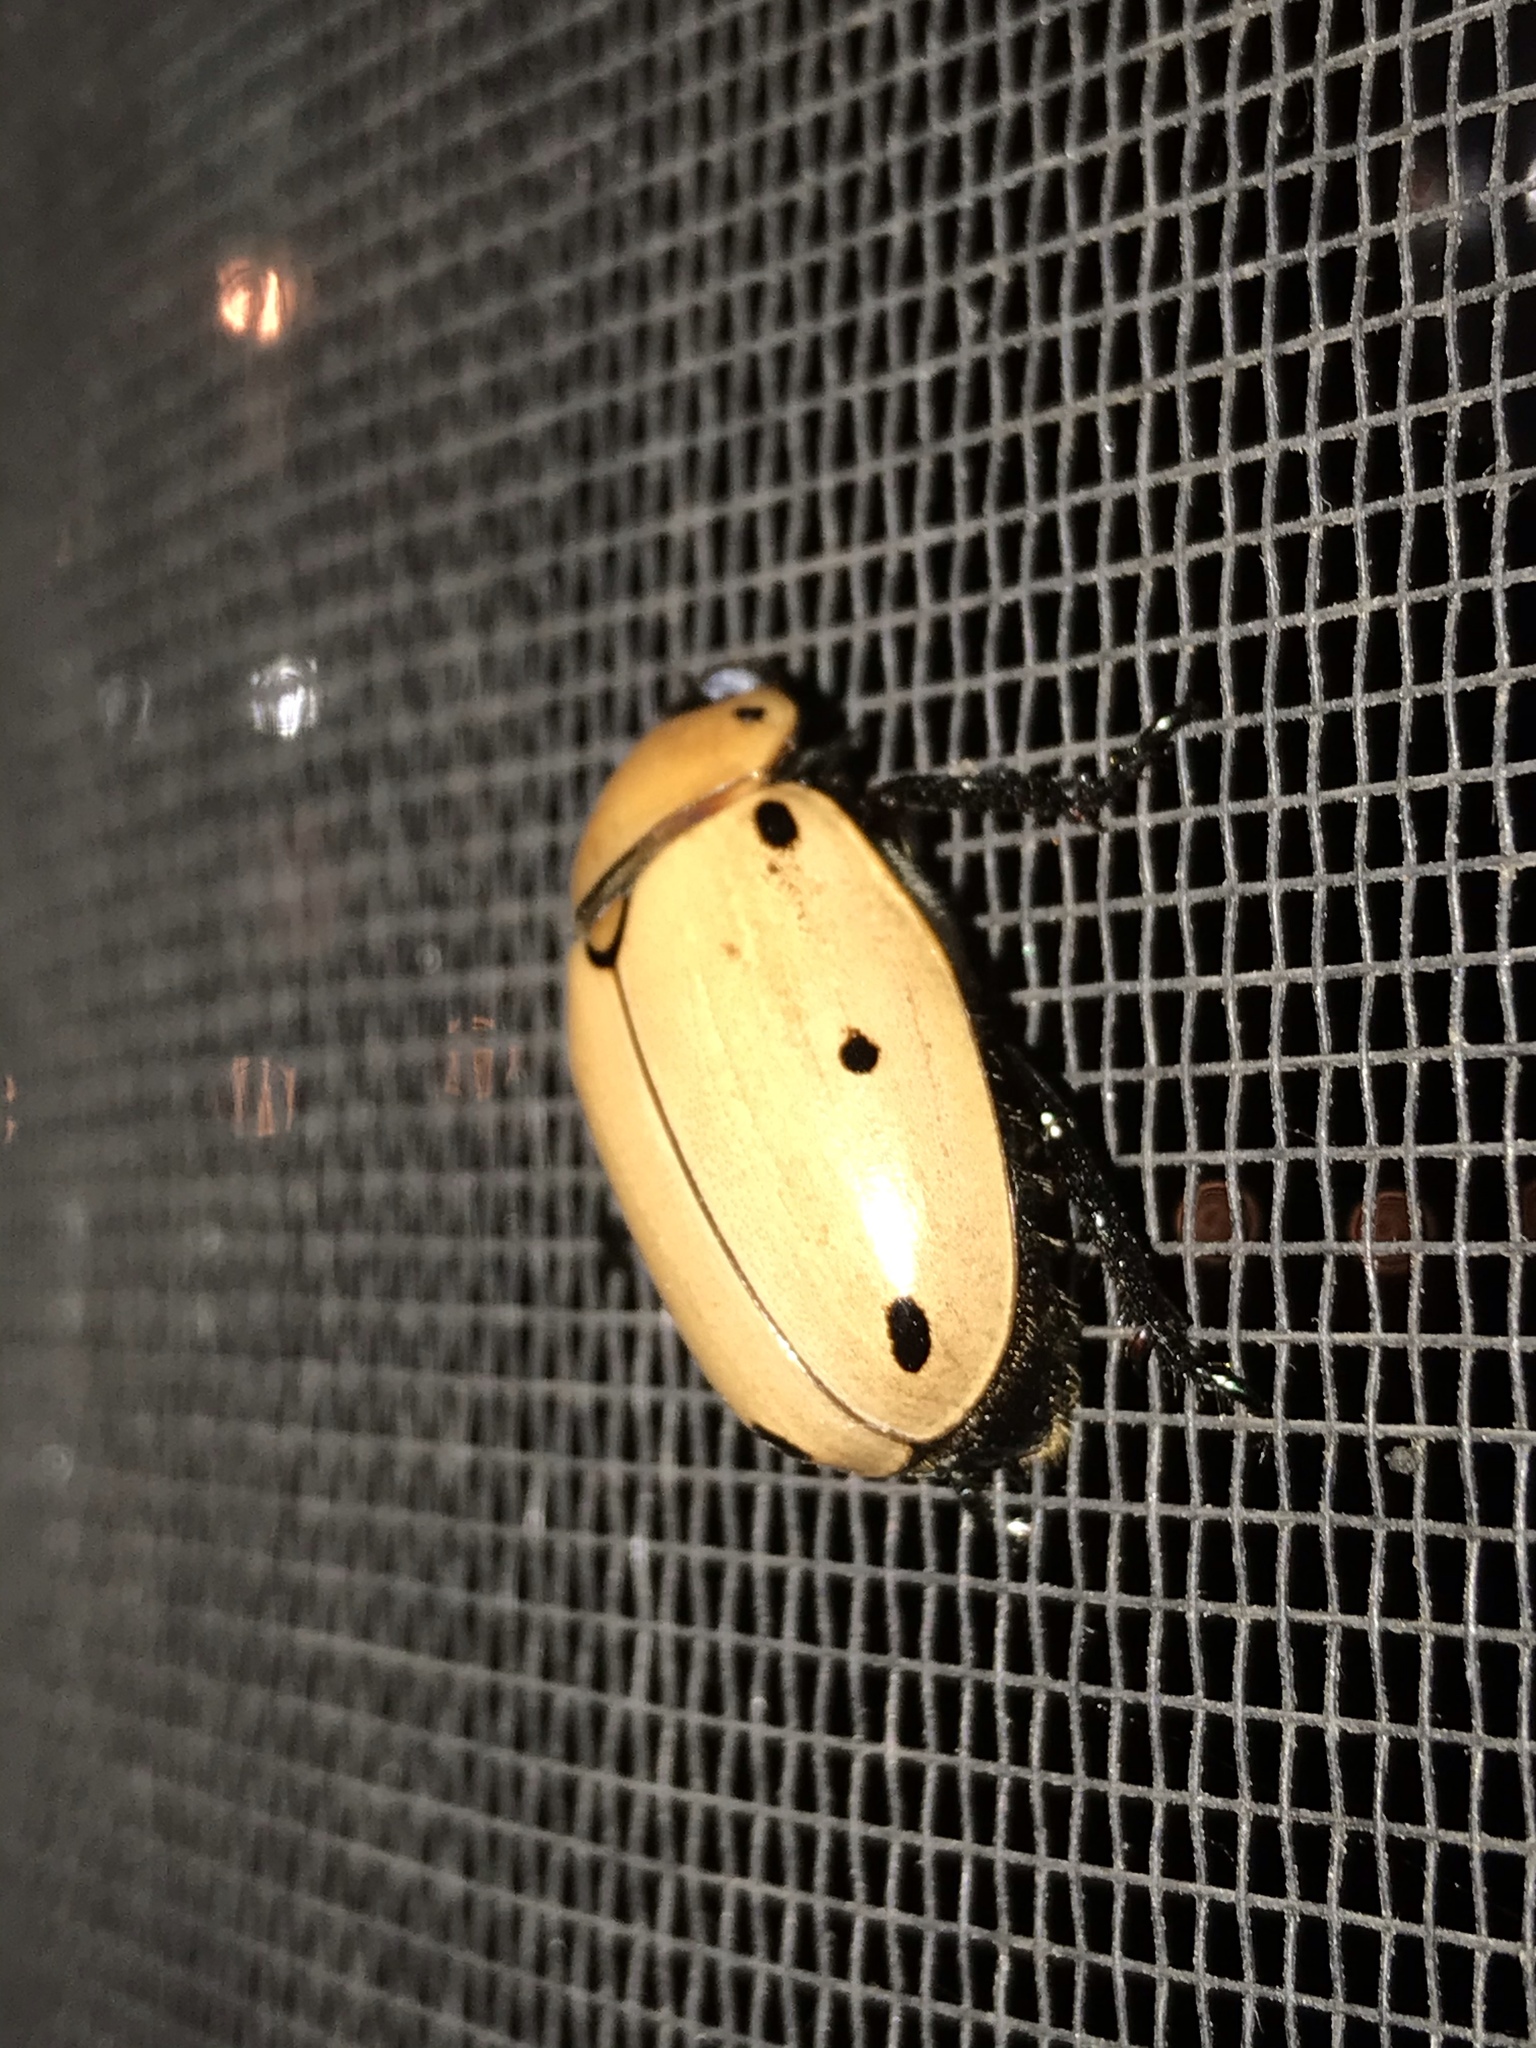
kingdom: Animalia
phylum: Arthropoda
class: Insecta
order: Coleoptera
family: Scarabaeidae
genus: Pelidnota
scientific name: Pelidnota punctata
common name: Grapevine beetle
